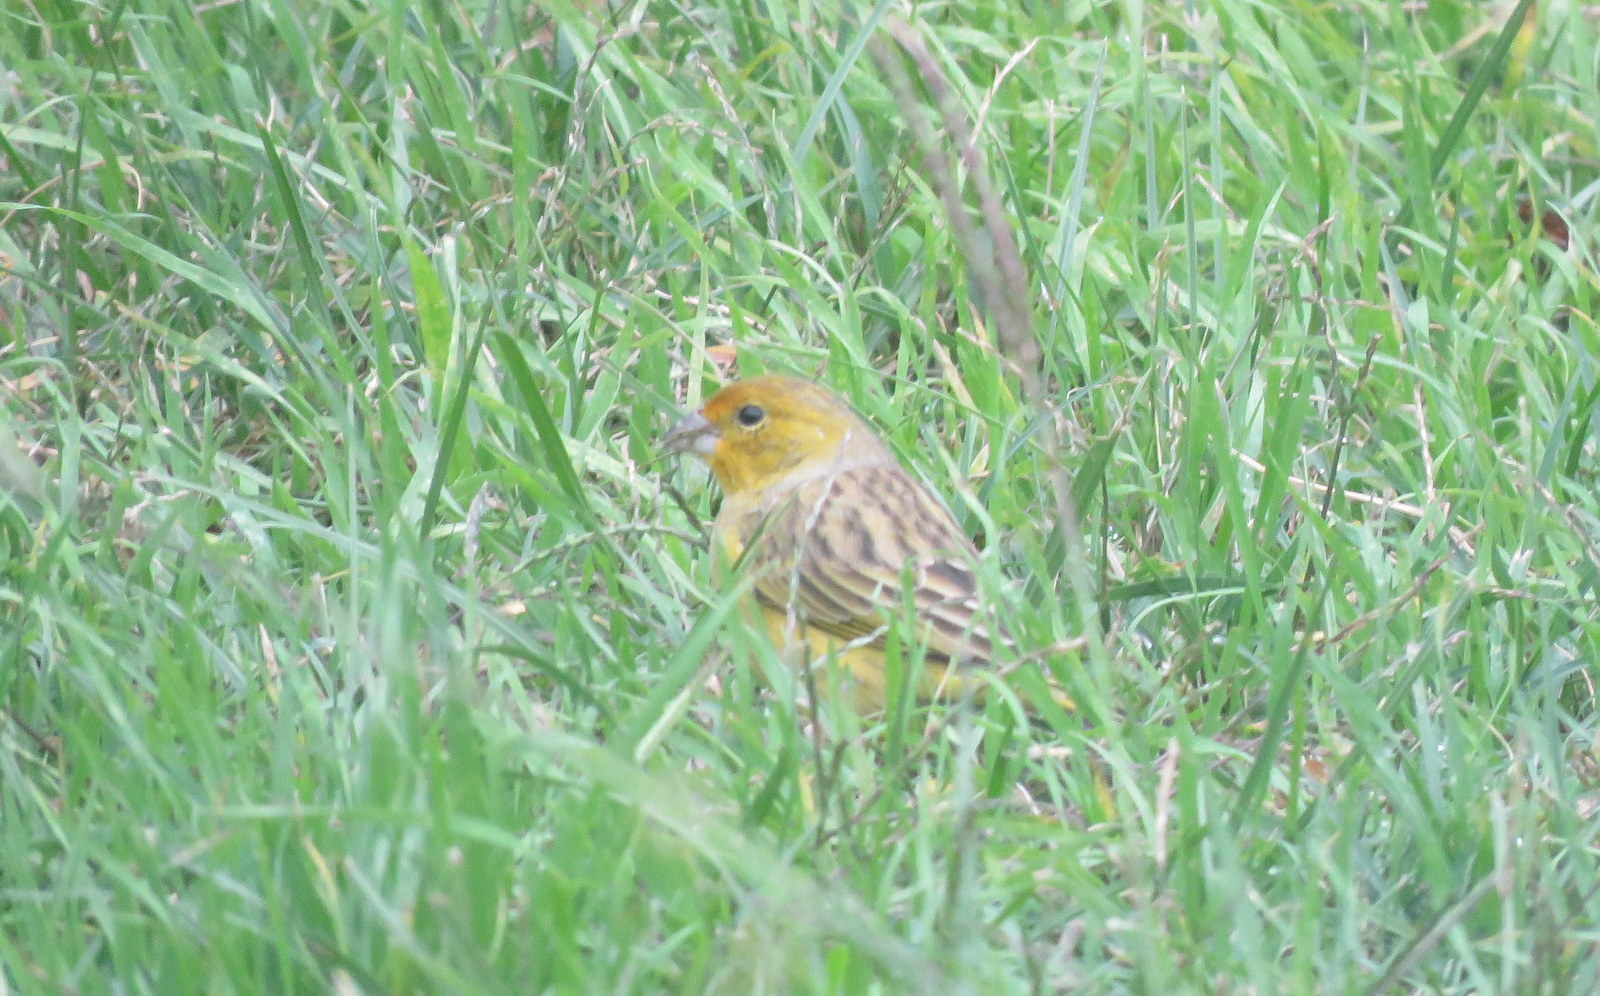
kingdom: Animalia
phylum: Chordata
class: Aves
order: Passeriformes
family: Thraupidae
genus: Sicalis
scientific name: Sicalis flaveola
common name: Saffron finch
